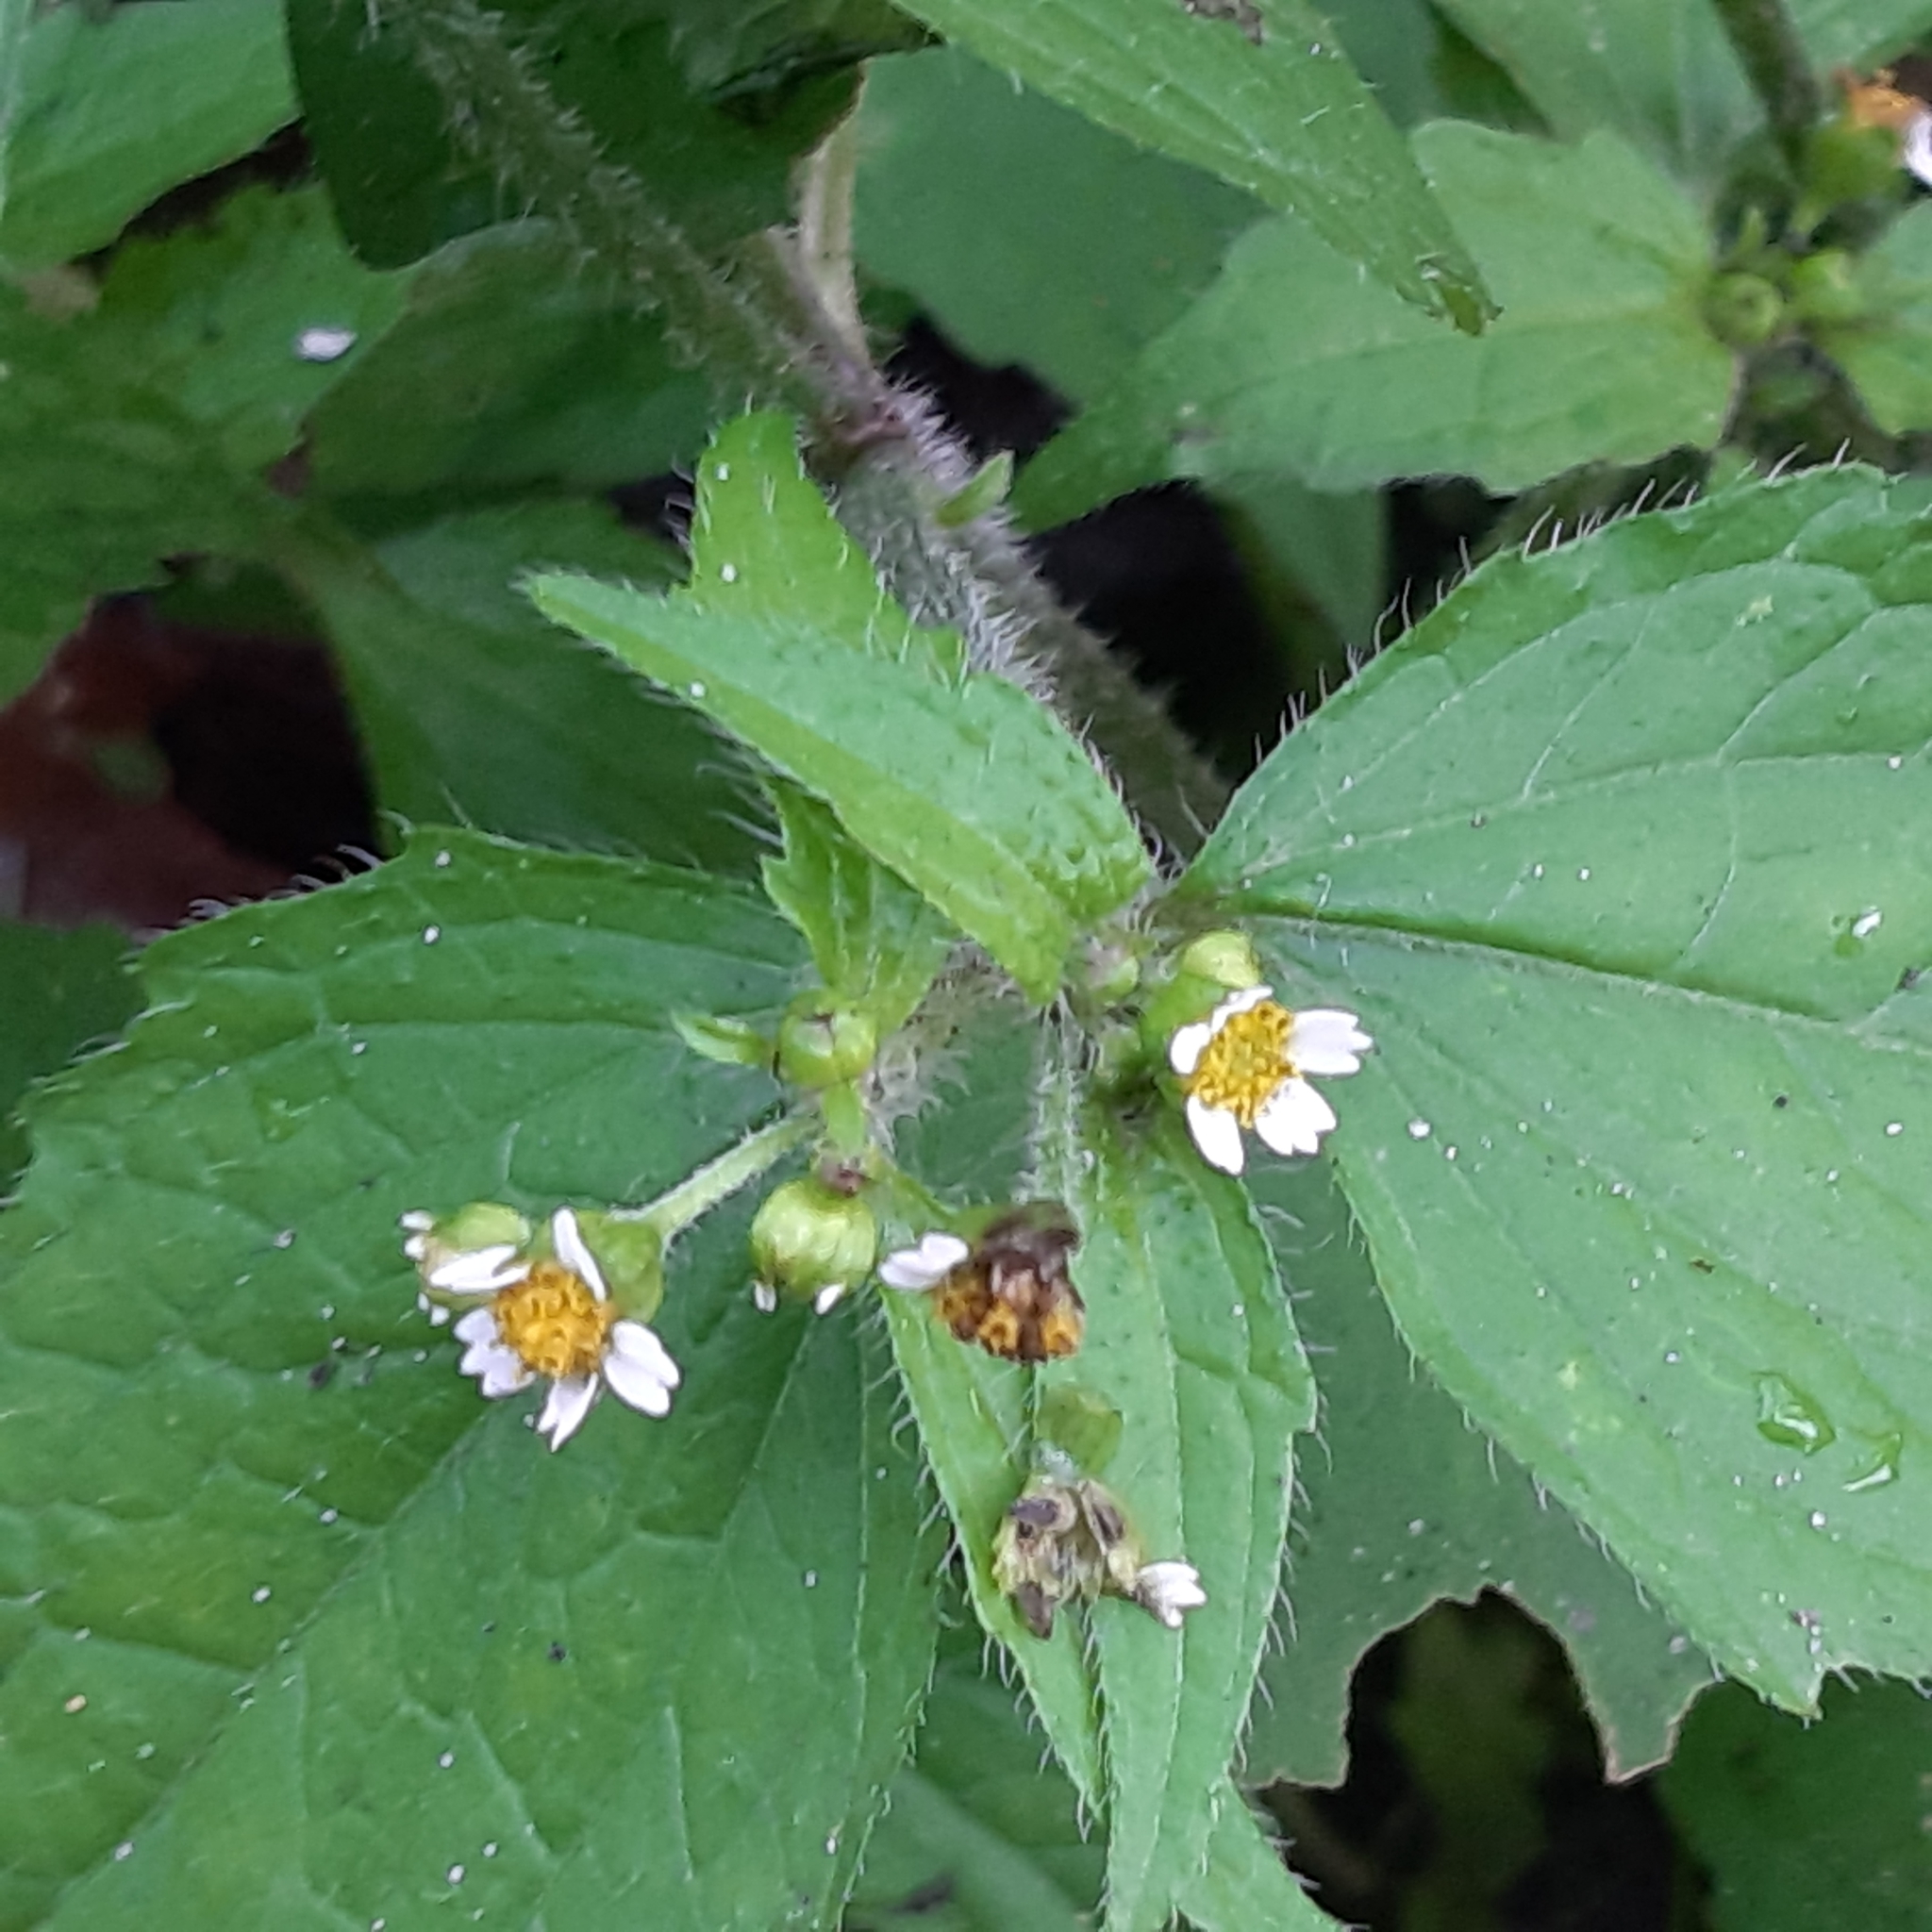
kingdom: Plantae
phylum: Tracheophyta
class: Magnoliopsida
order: Asterales
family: Asteraceae
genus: Galinsoga
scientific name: Galinsoga quadriradiata
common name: Shaggy soldier
